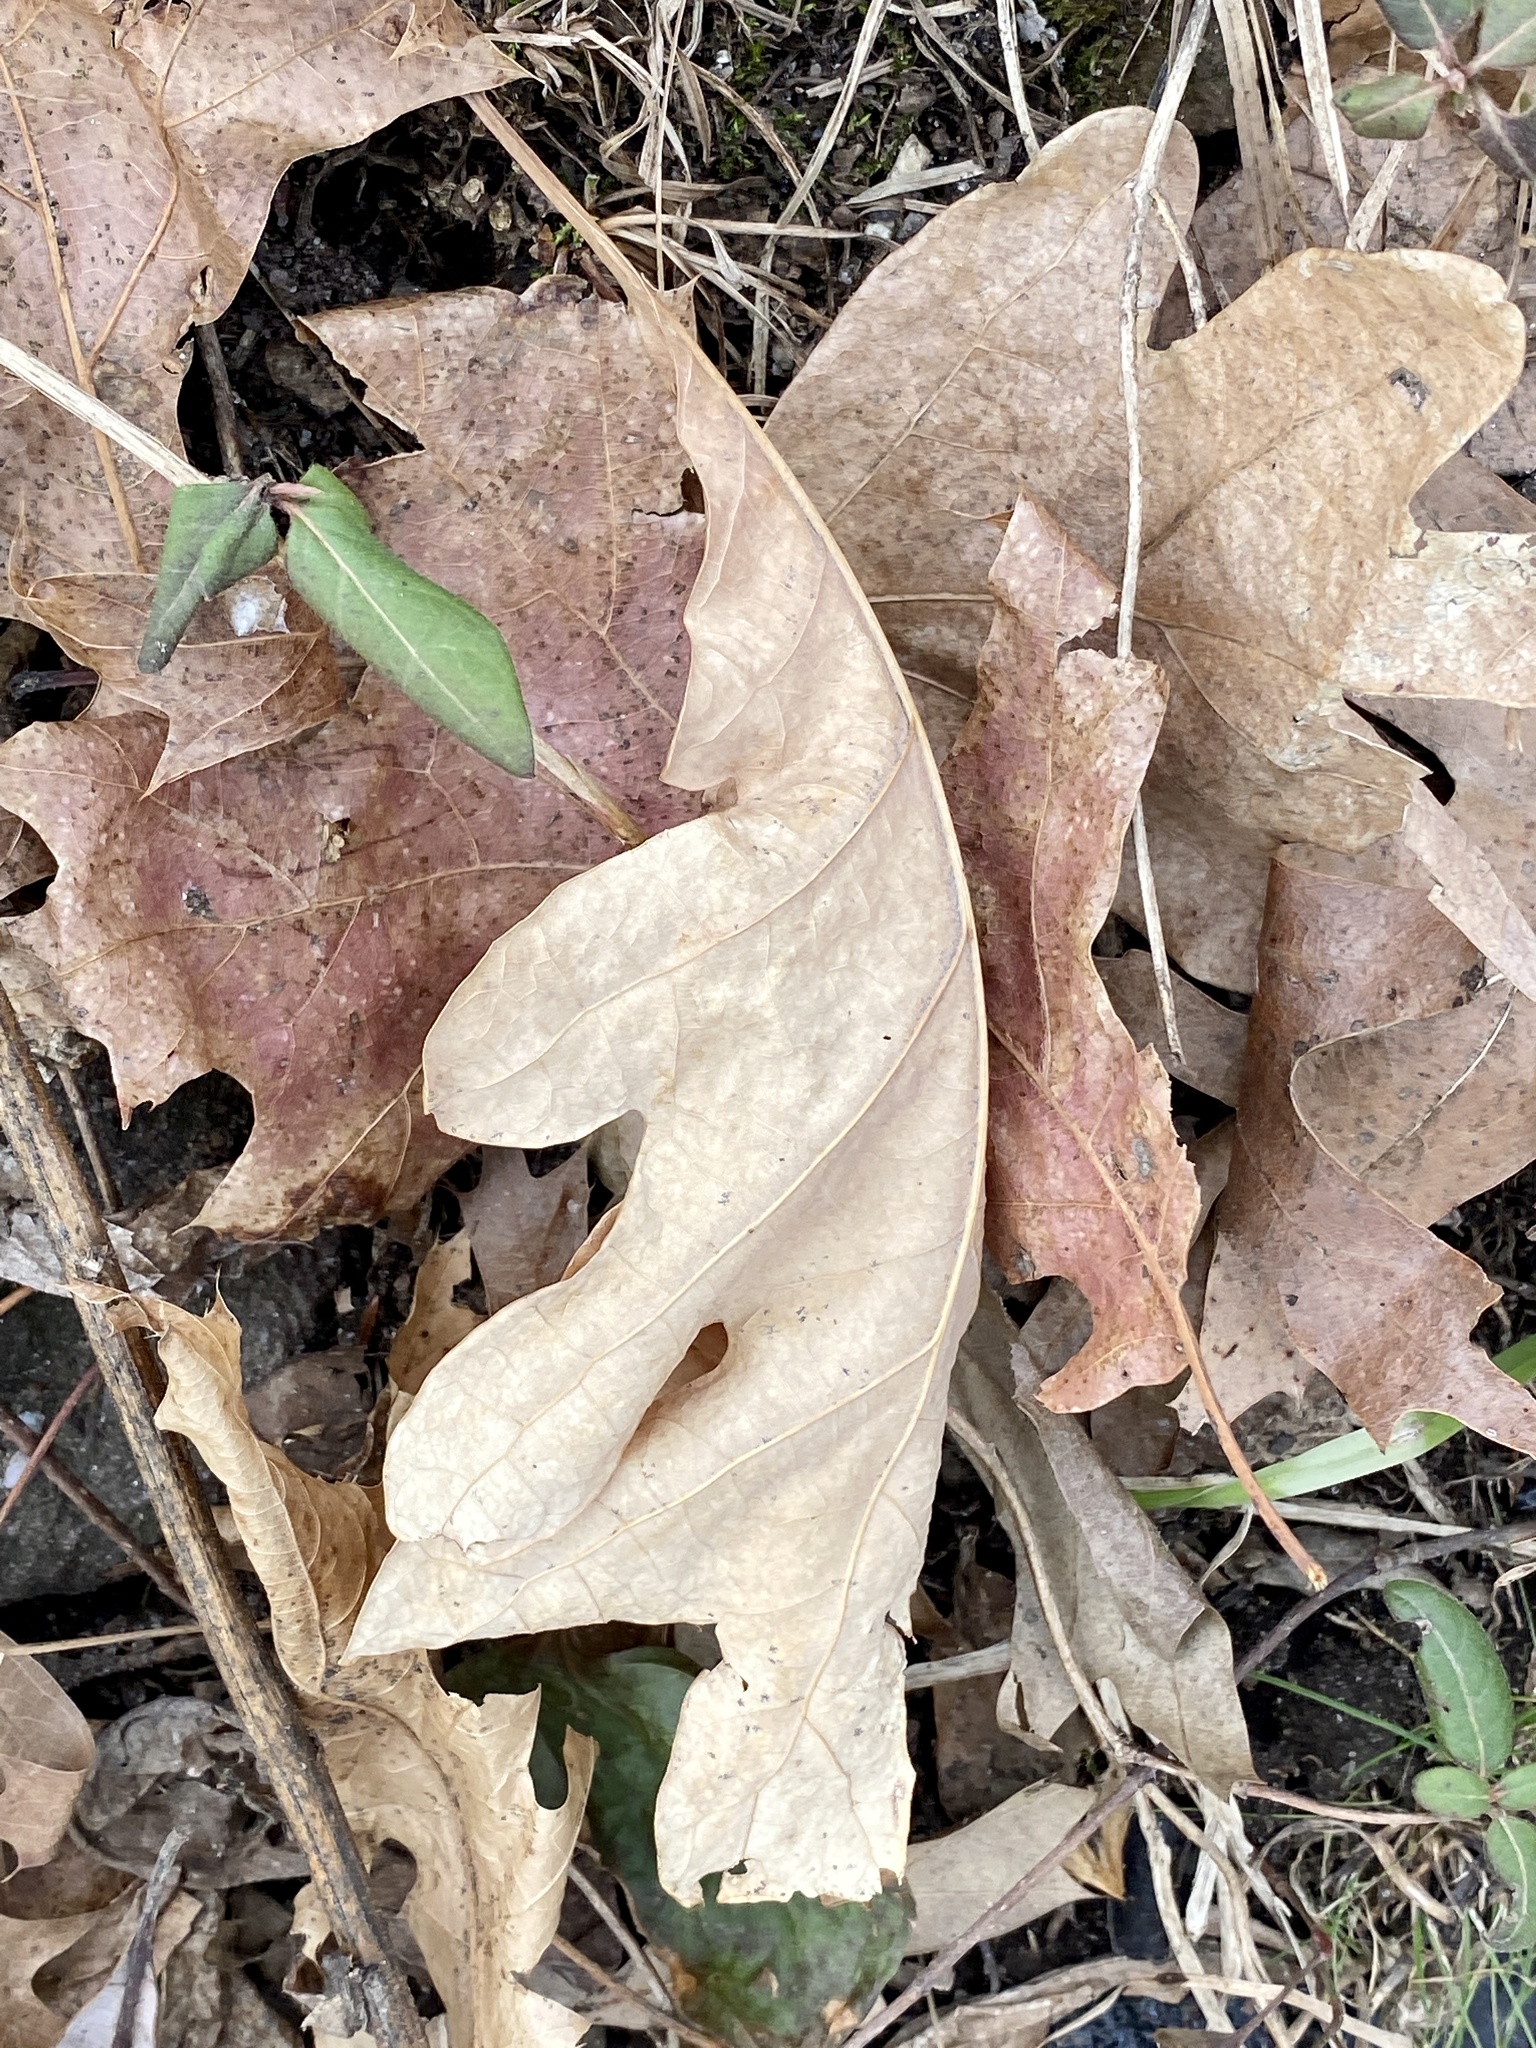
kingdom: Plantae
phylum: Tracheophyta
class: Magnoliopsida
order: Fagales
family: Fagaceae
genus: Quercus
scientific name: Quercus alba
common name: White oak
